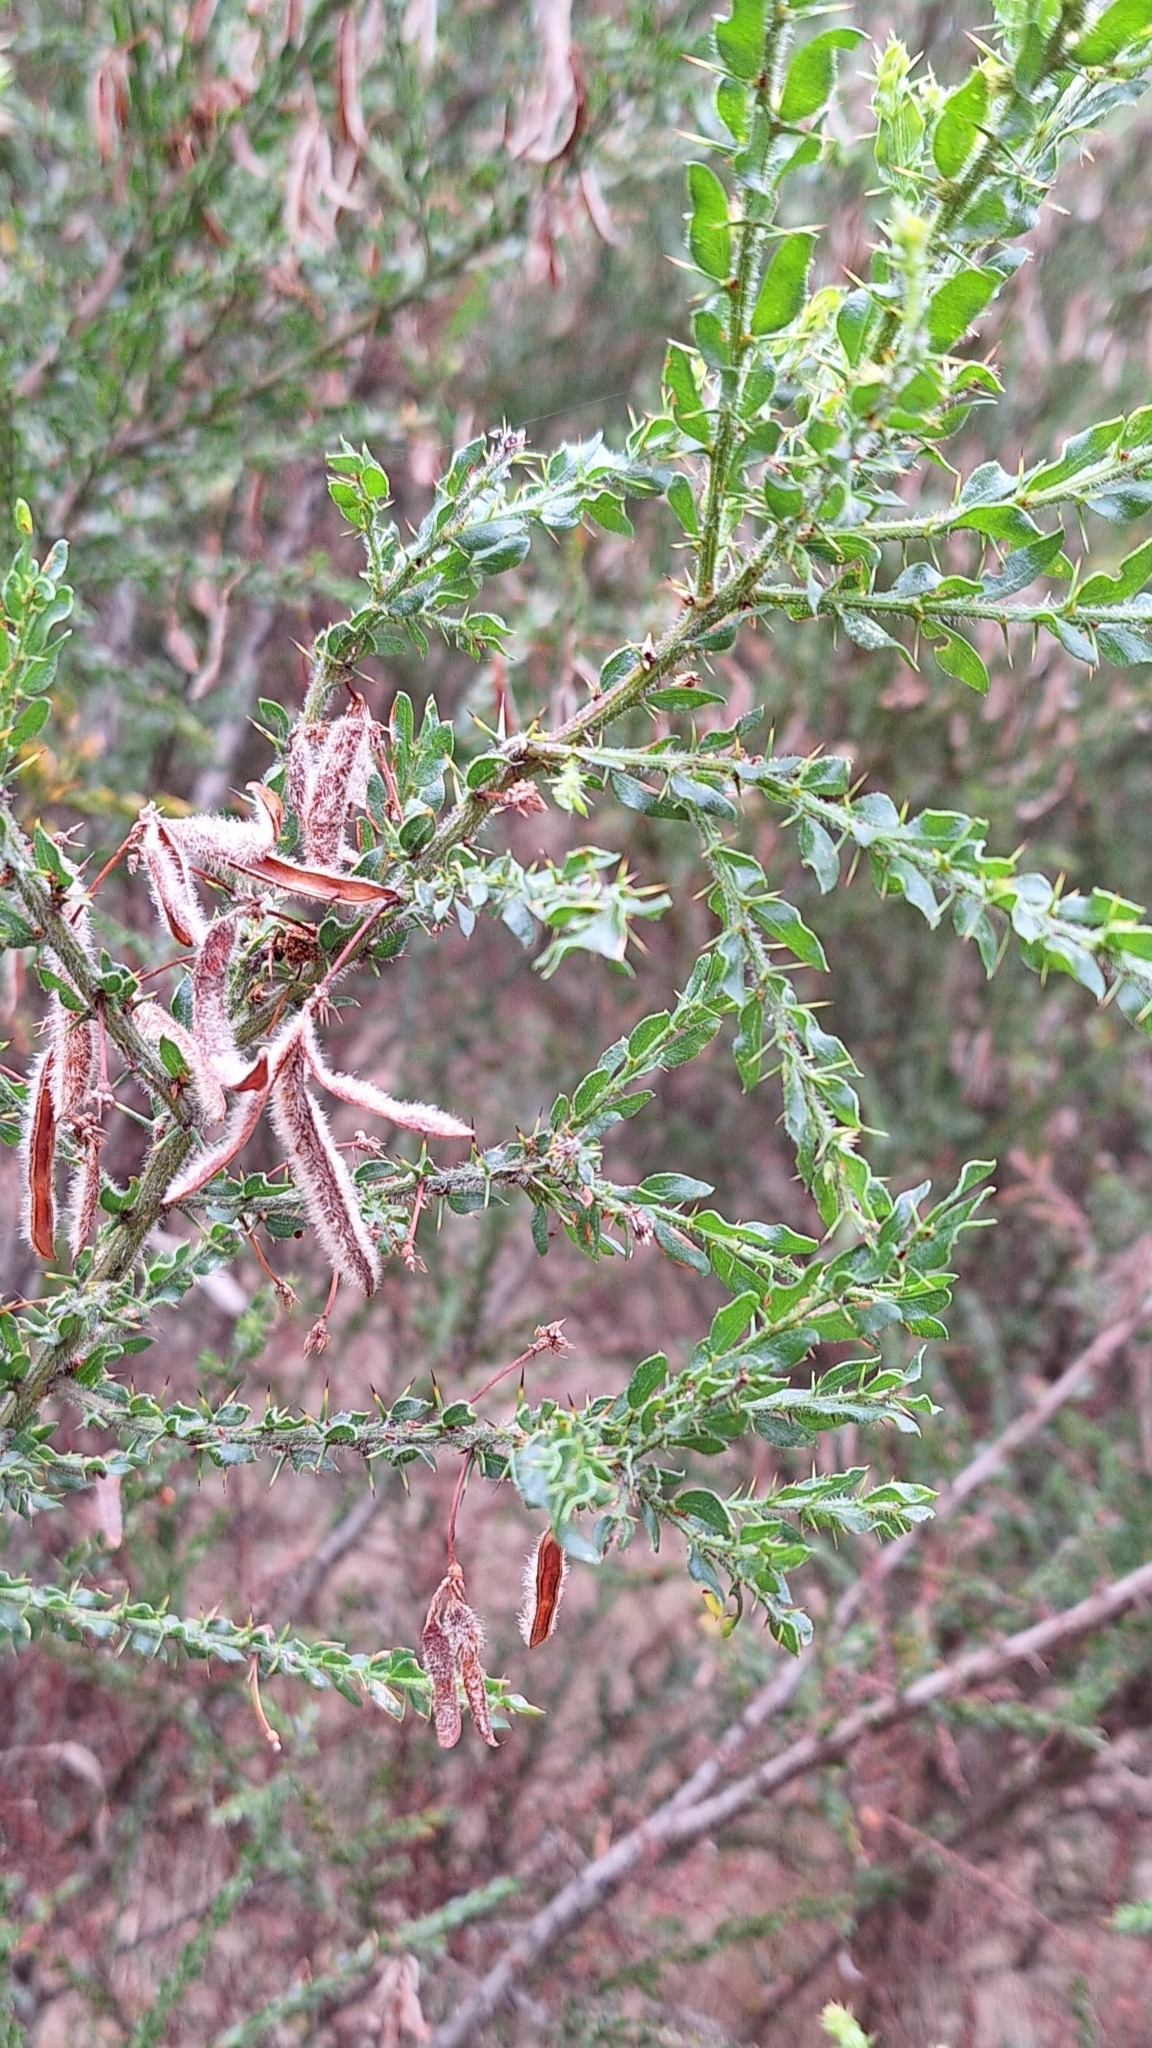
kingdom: Plantae
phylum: Tracheophyta
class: Magnoliopsida
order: Fabales
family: Fabaceae
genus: Acacia
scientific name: Acacia paradoxa
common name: Paradox acacia
